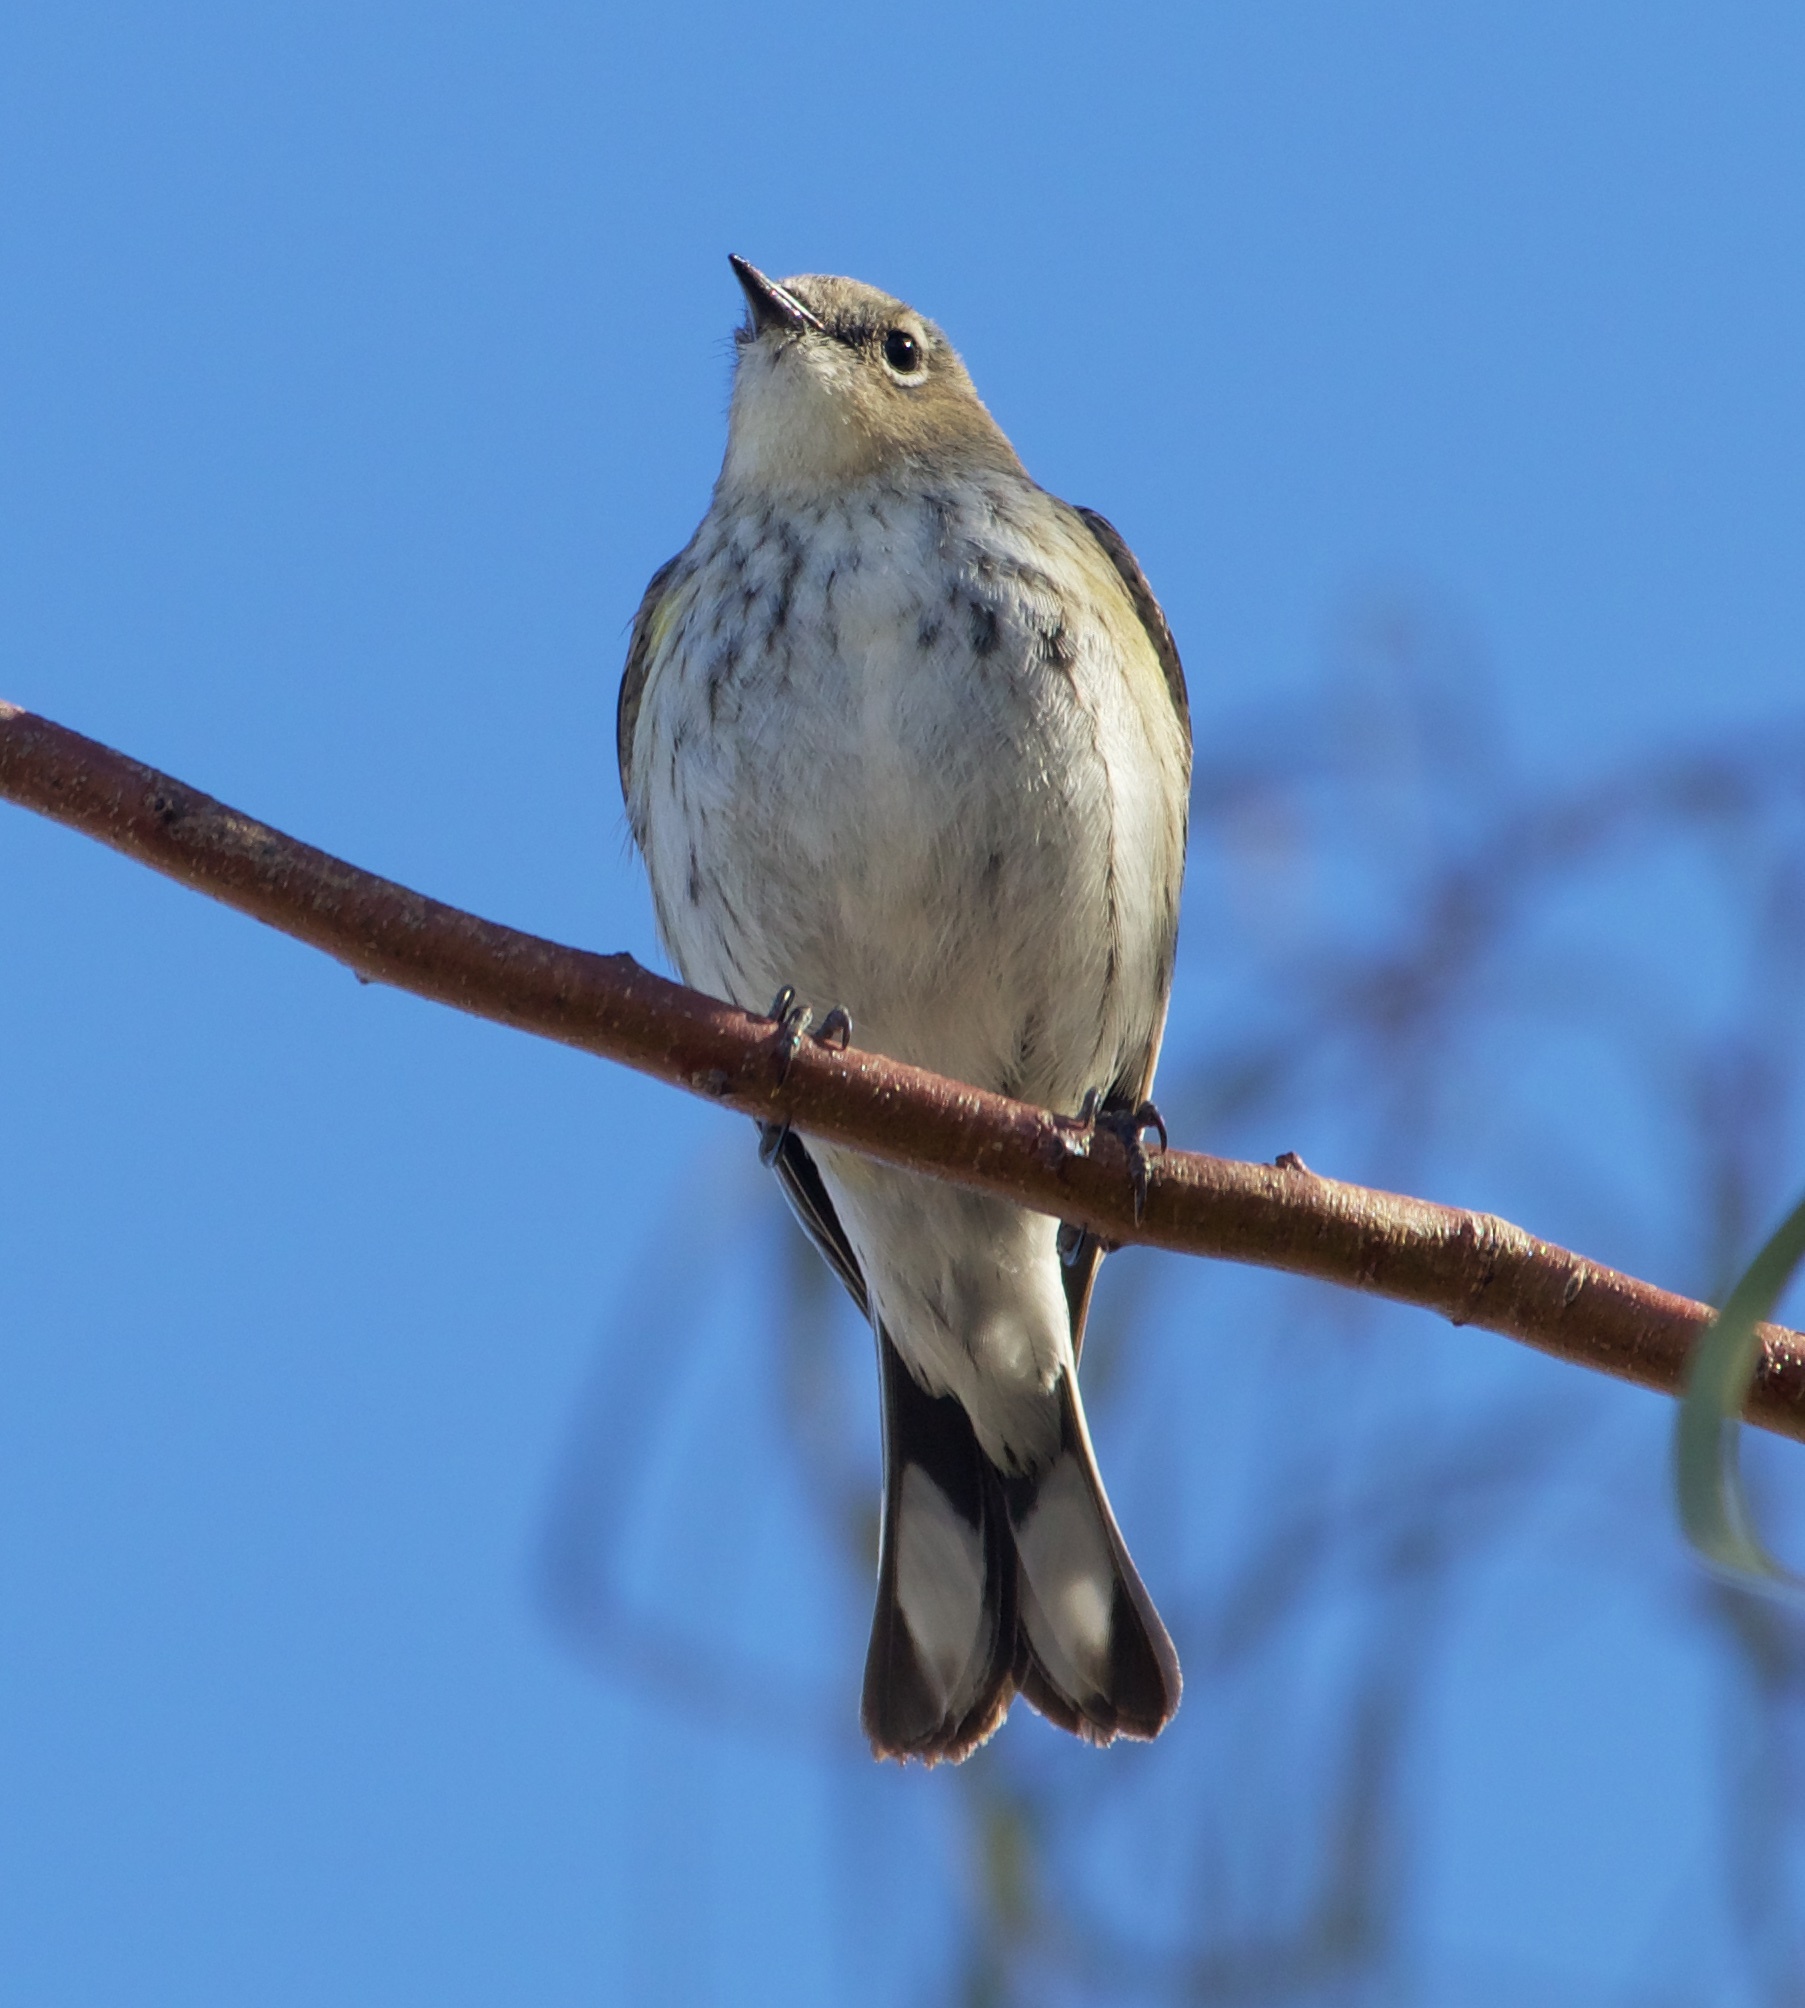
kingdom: Animalia
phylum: Chordata
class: Aves
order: Passeriformes
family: Parulidae
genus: Setophaga
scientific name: Setophaga coronata
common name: Myrtle warbler
